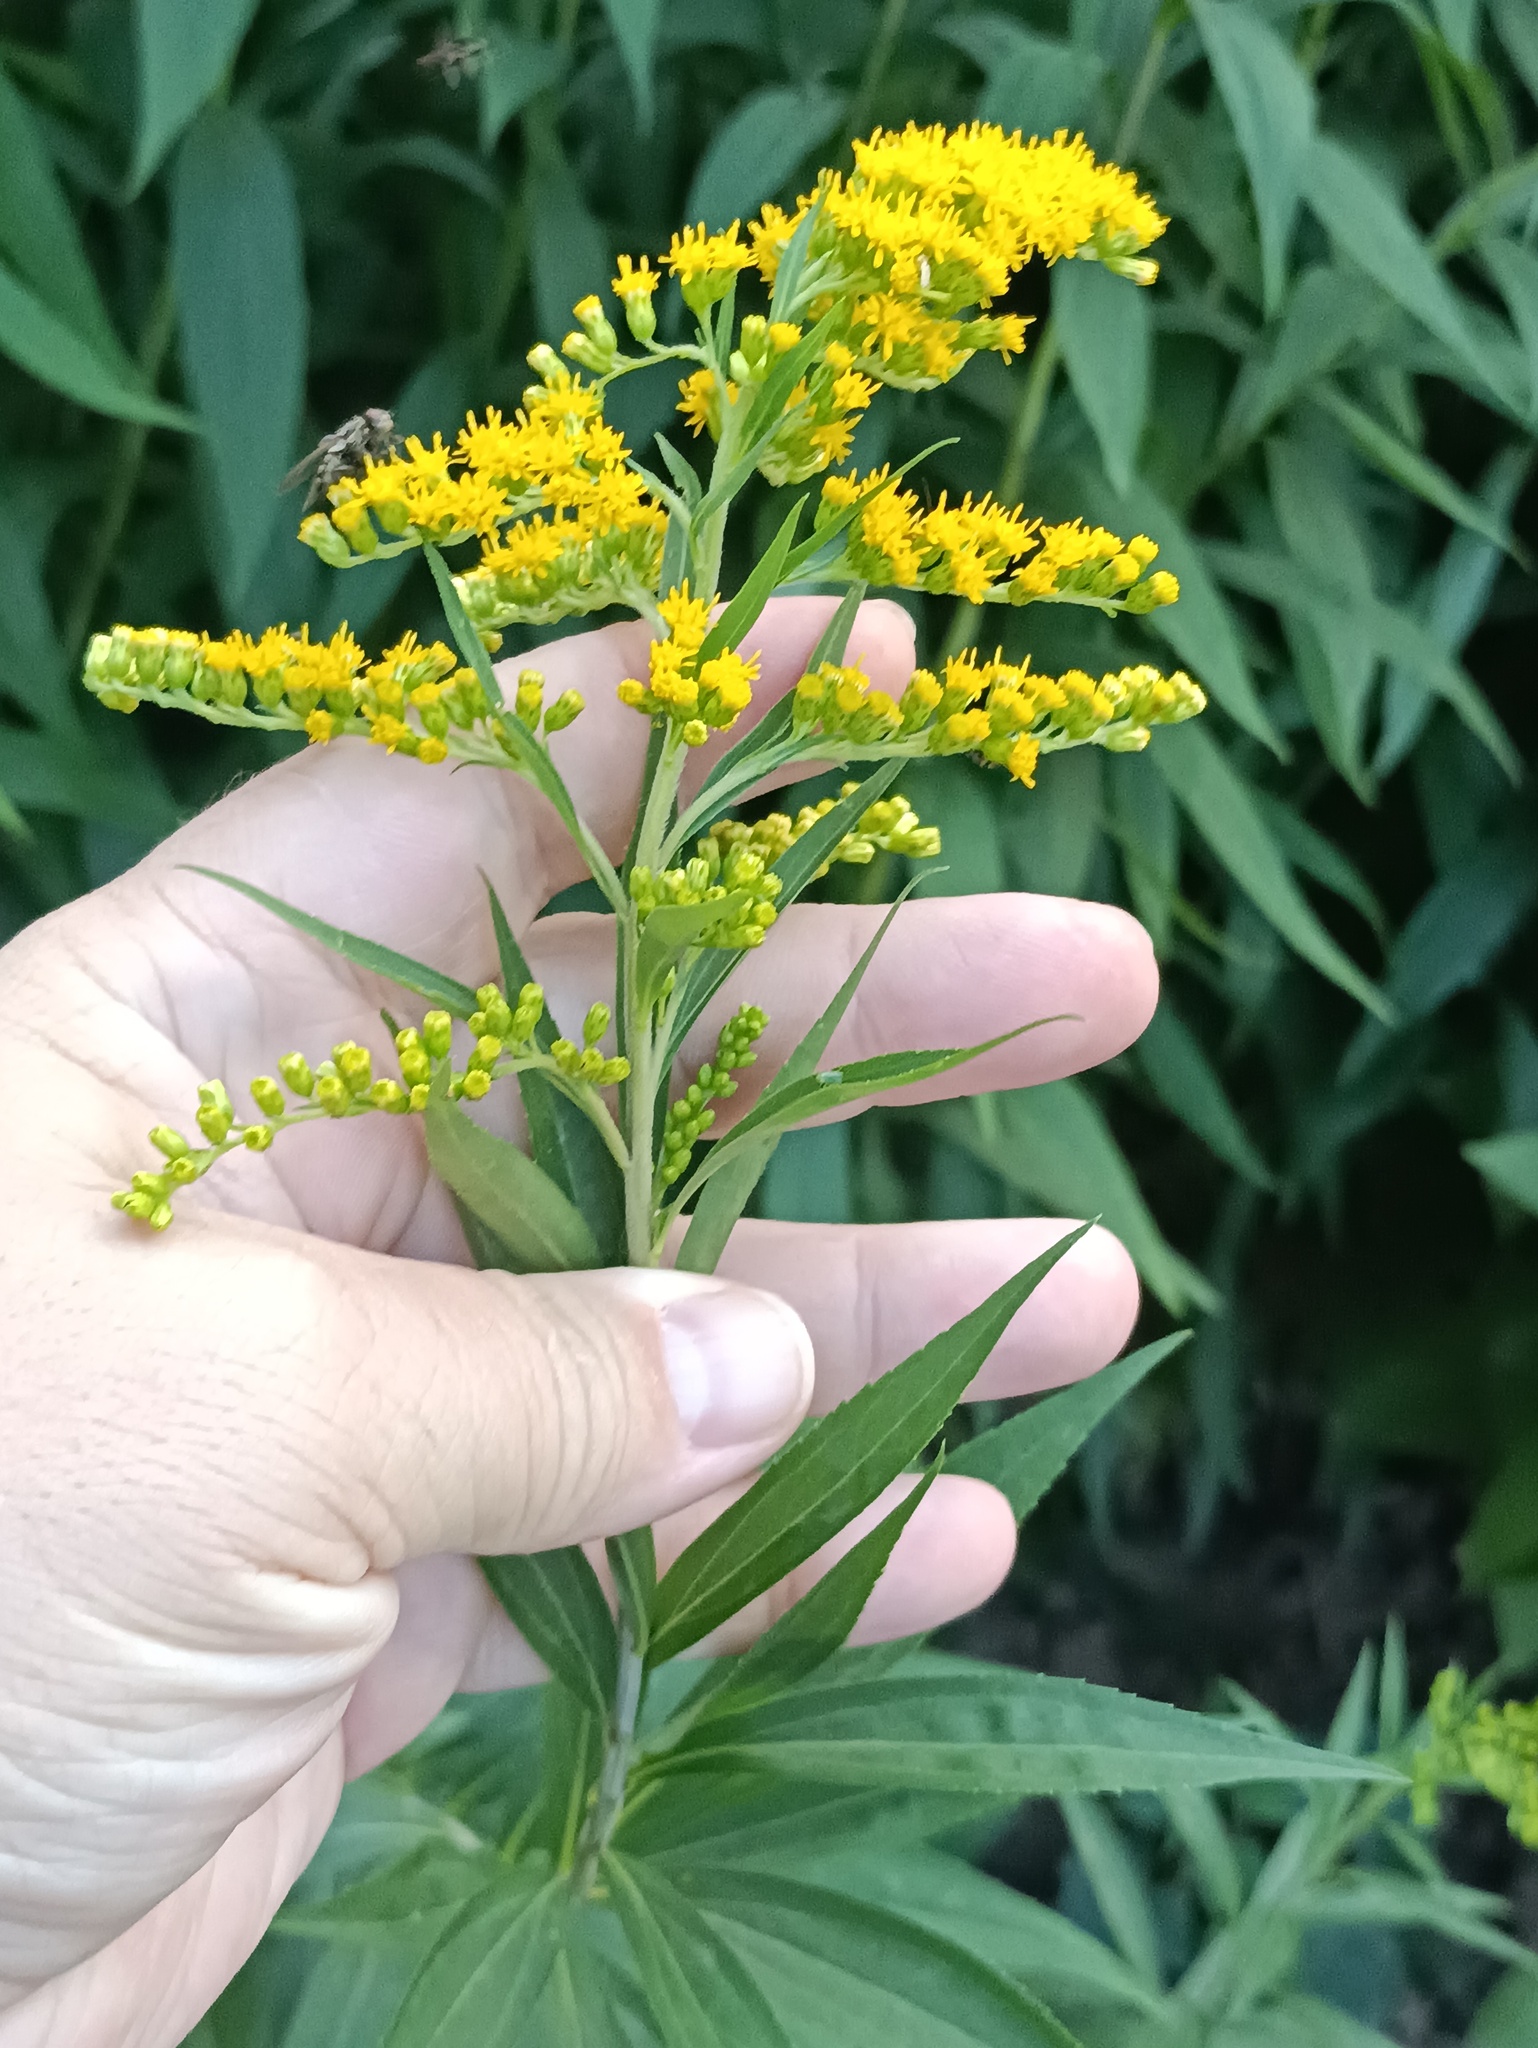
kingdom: Plantae
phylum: Tracheophyta
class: Magnoliopsida
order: Asterales
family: Asteraceae
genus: Solidago
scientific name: Solidago gigantea
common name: Giant goldenrod
